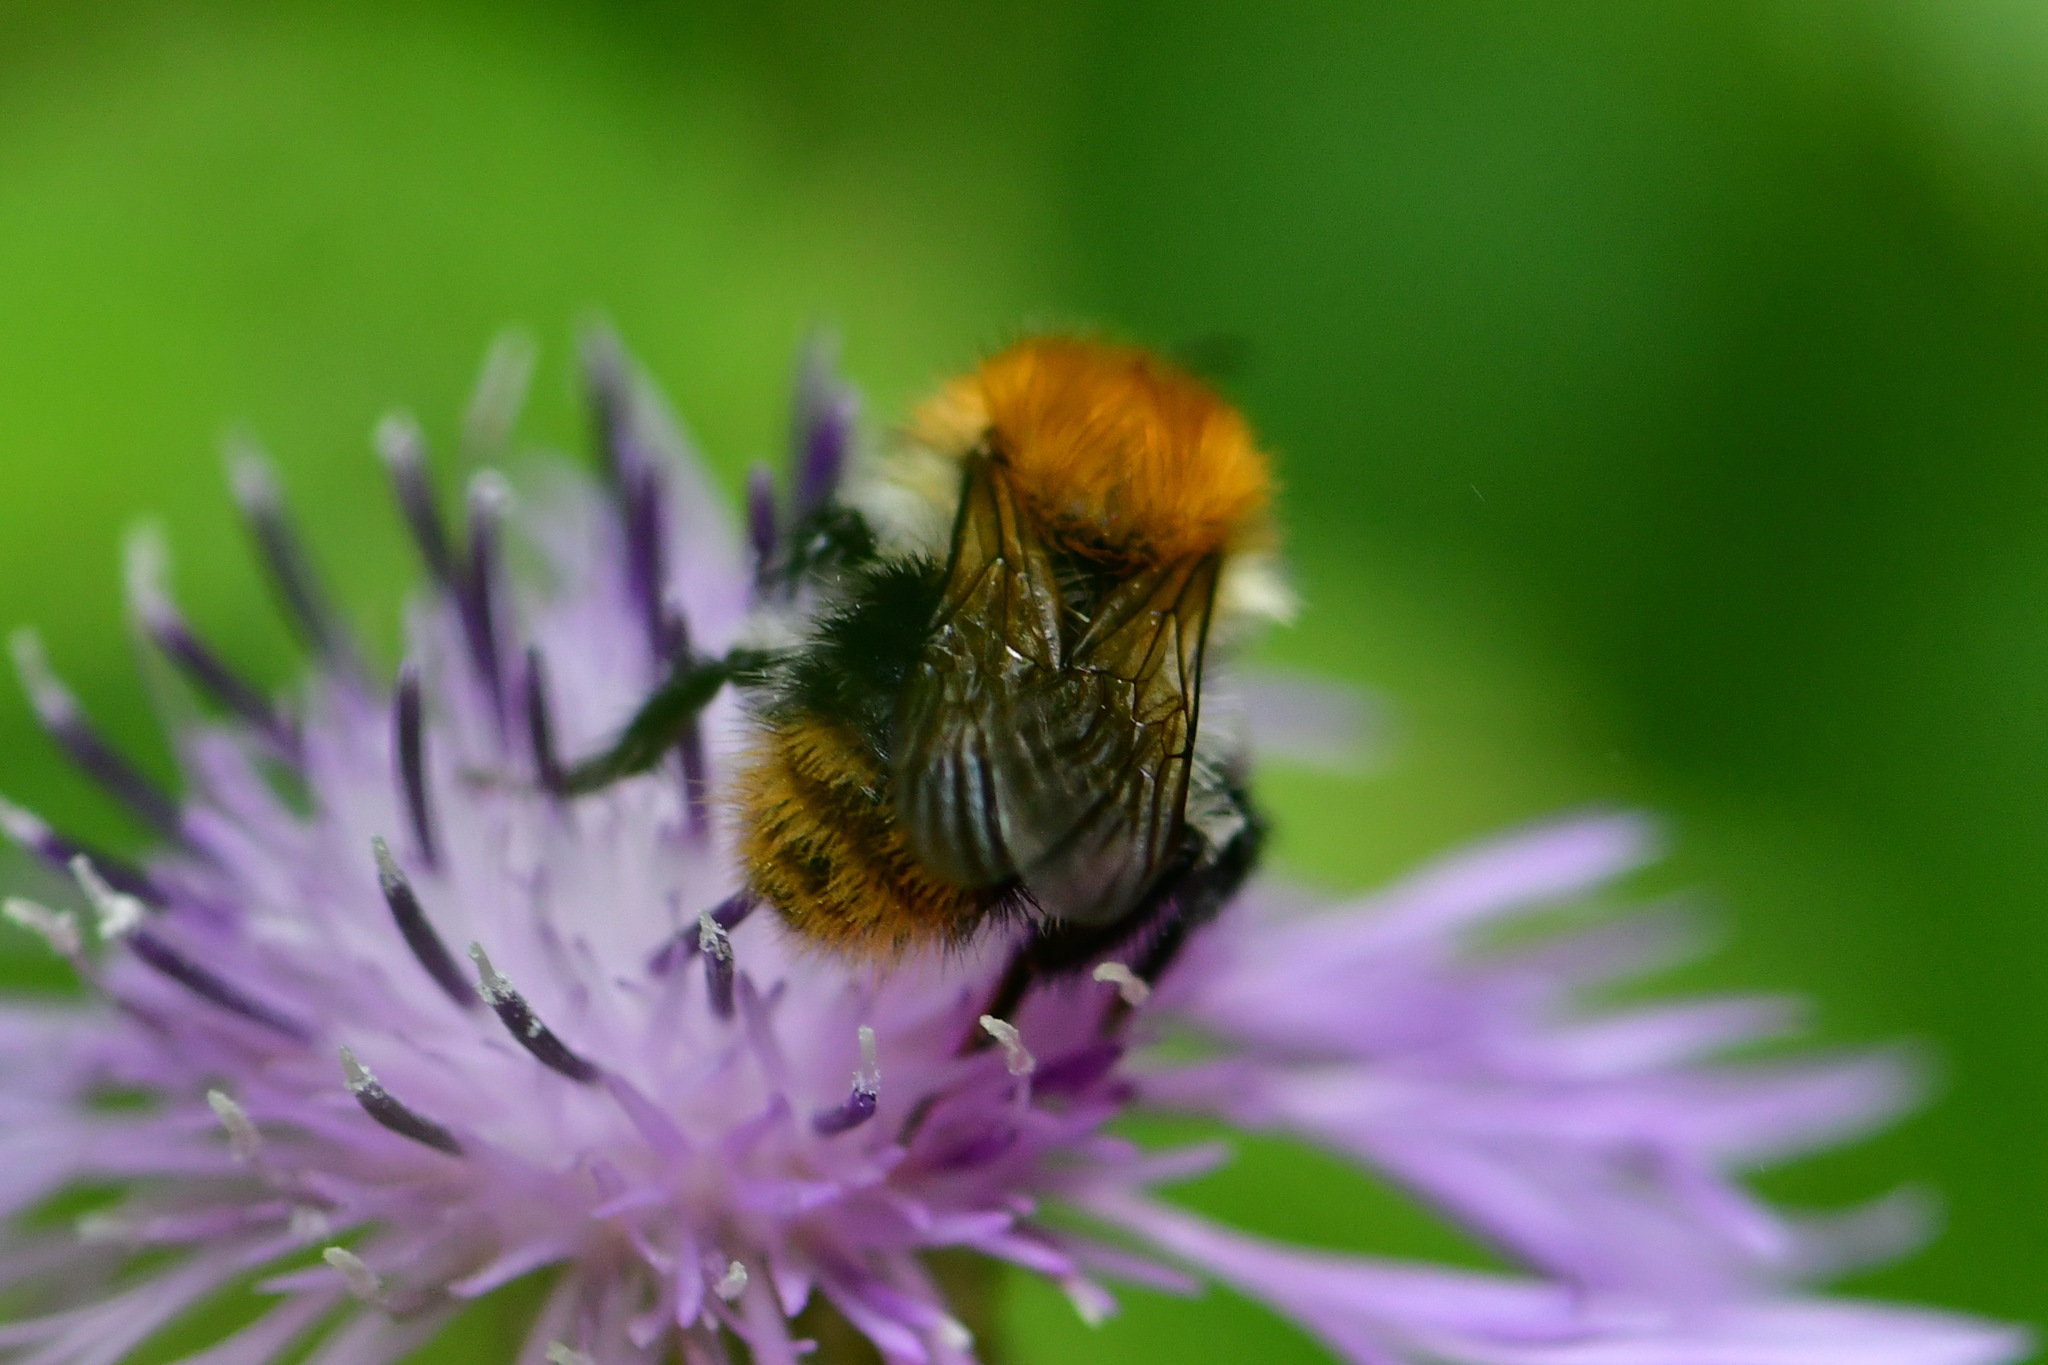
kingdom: Animalia
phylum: Arthropoda
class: Insecta
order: Hymenoptera
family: Apidae
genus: Bombus
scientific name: Bombus pascuorum
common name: Common carder bee
